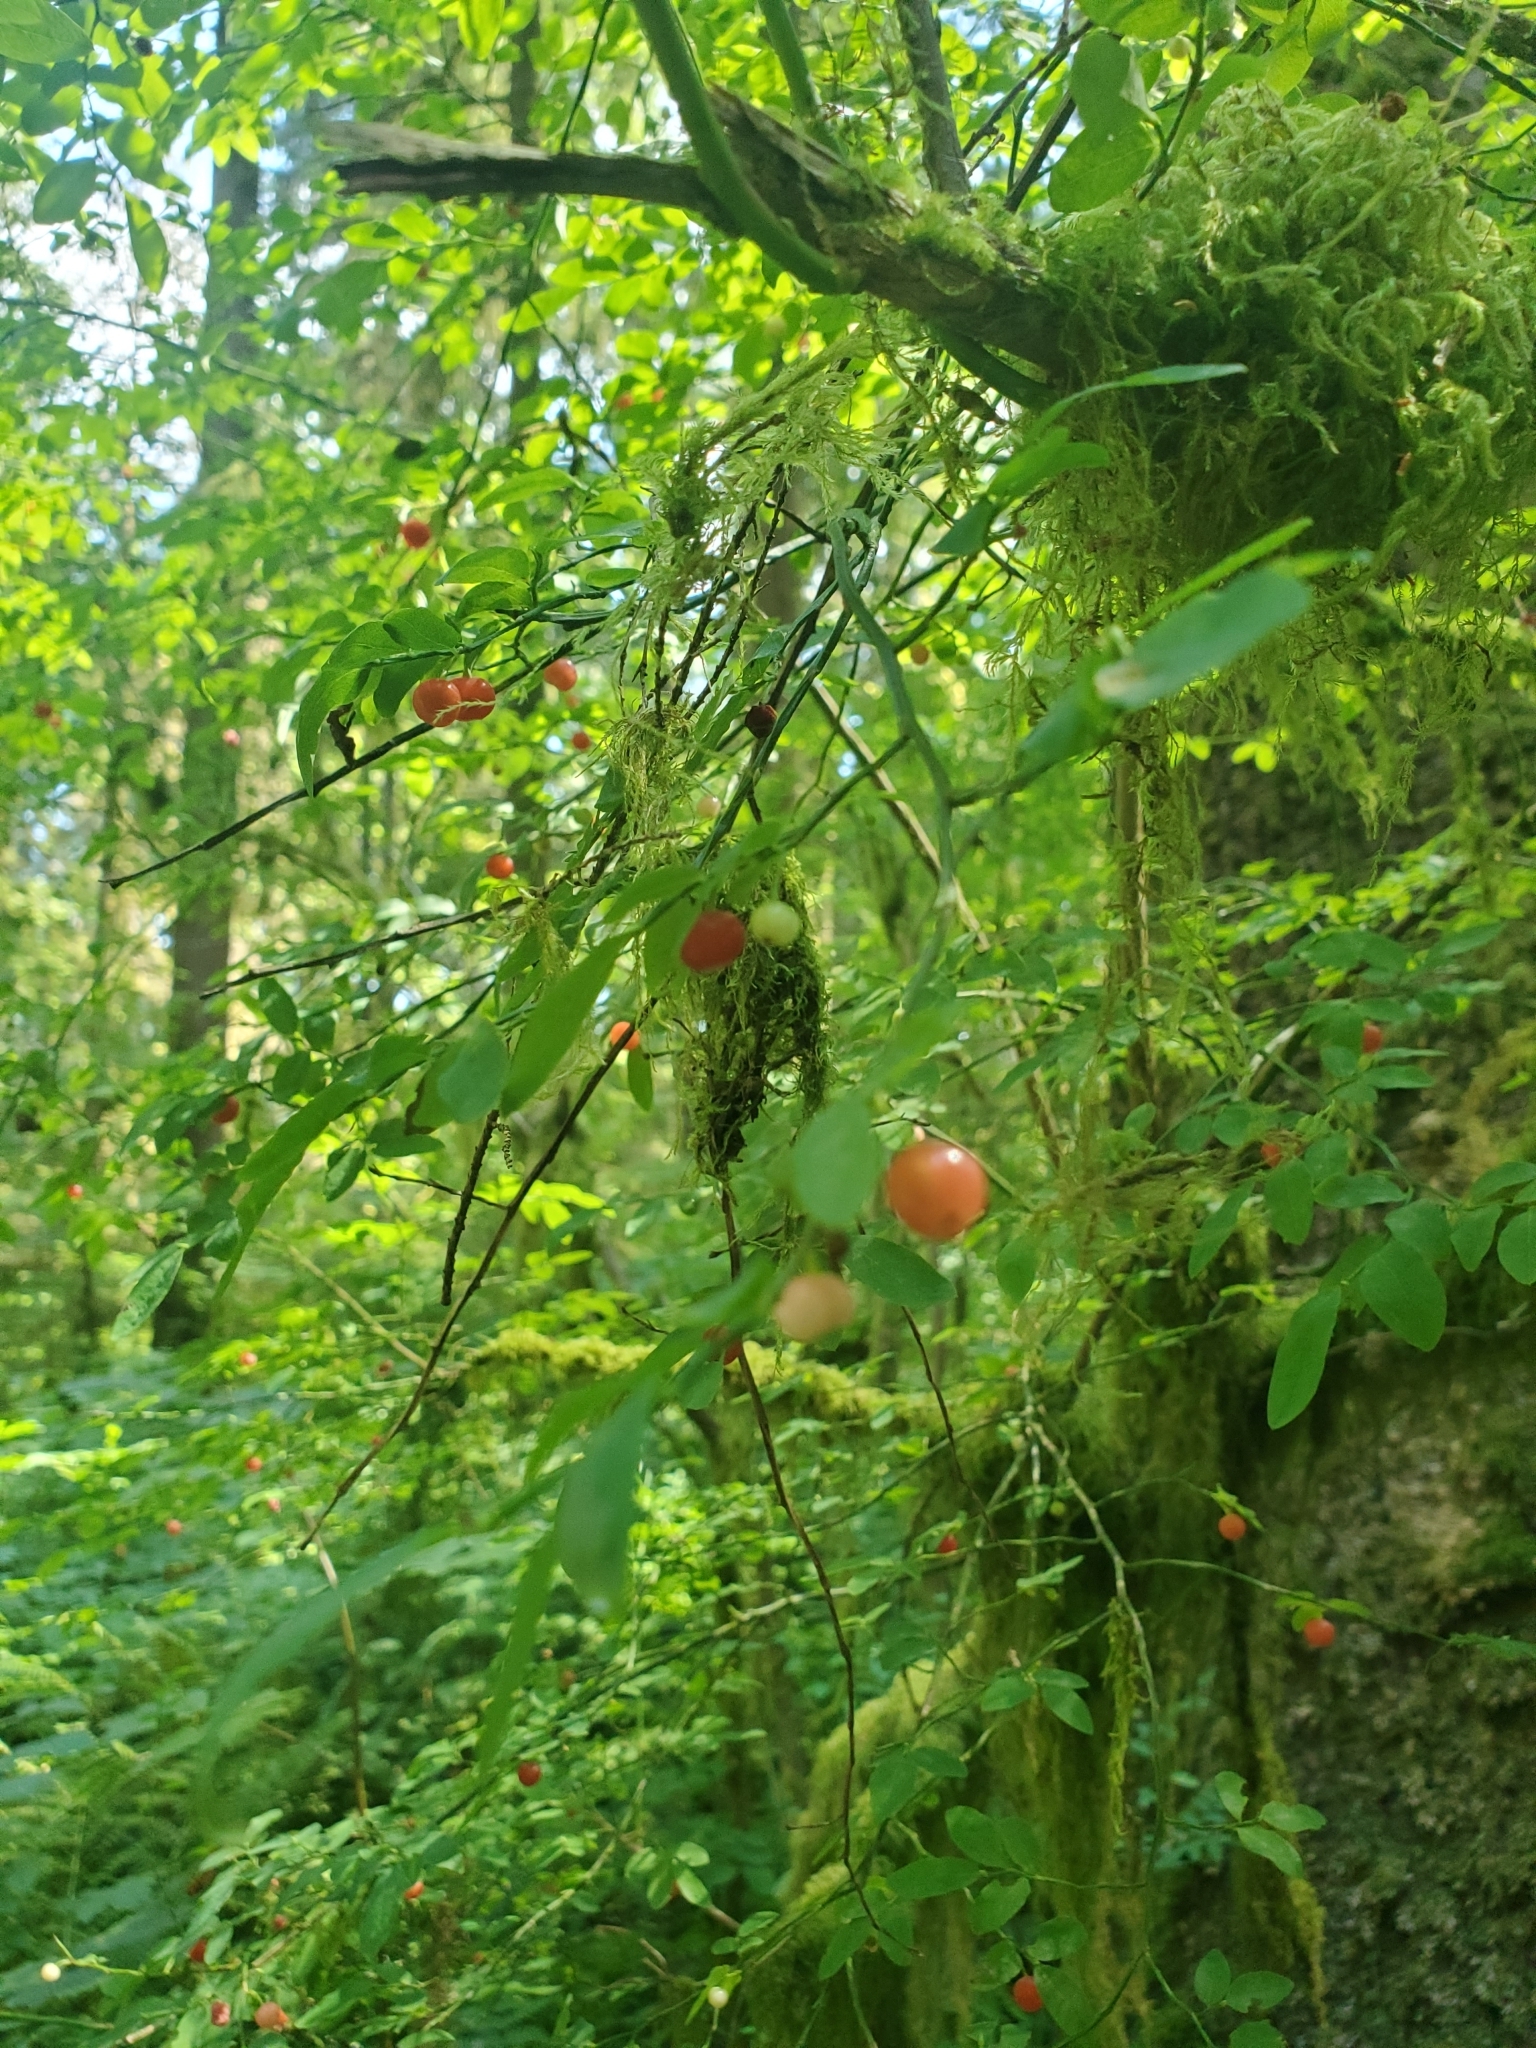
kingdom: Plantae
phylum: Tracheophyta
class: Magnoliopsida
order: Ericales
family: Ericaceae
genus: Vaccinium
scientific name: Vaccinium parvifolium
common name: Red-huckleberry
